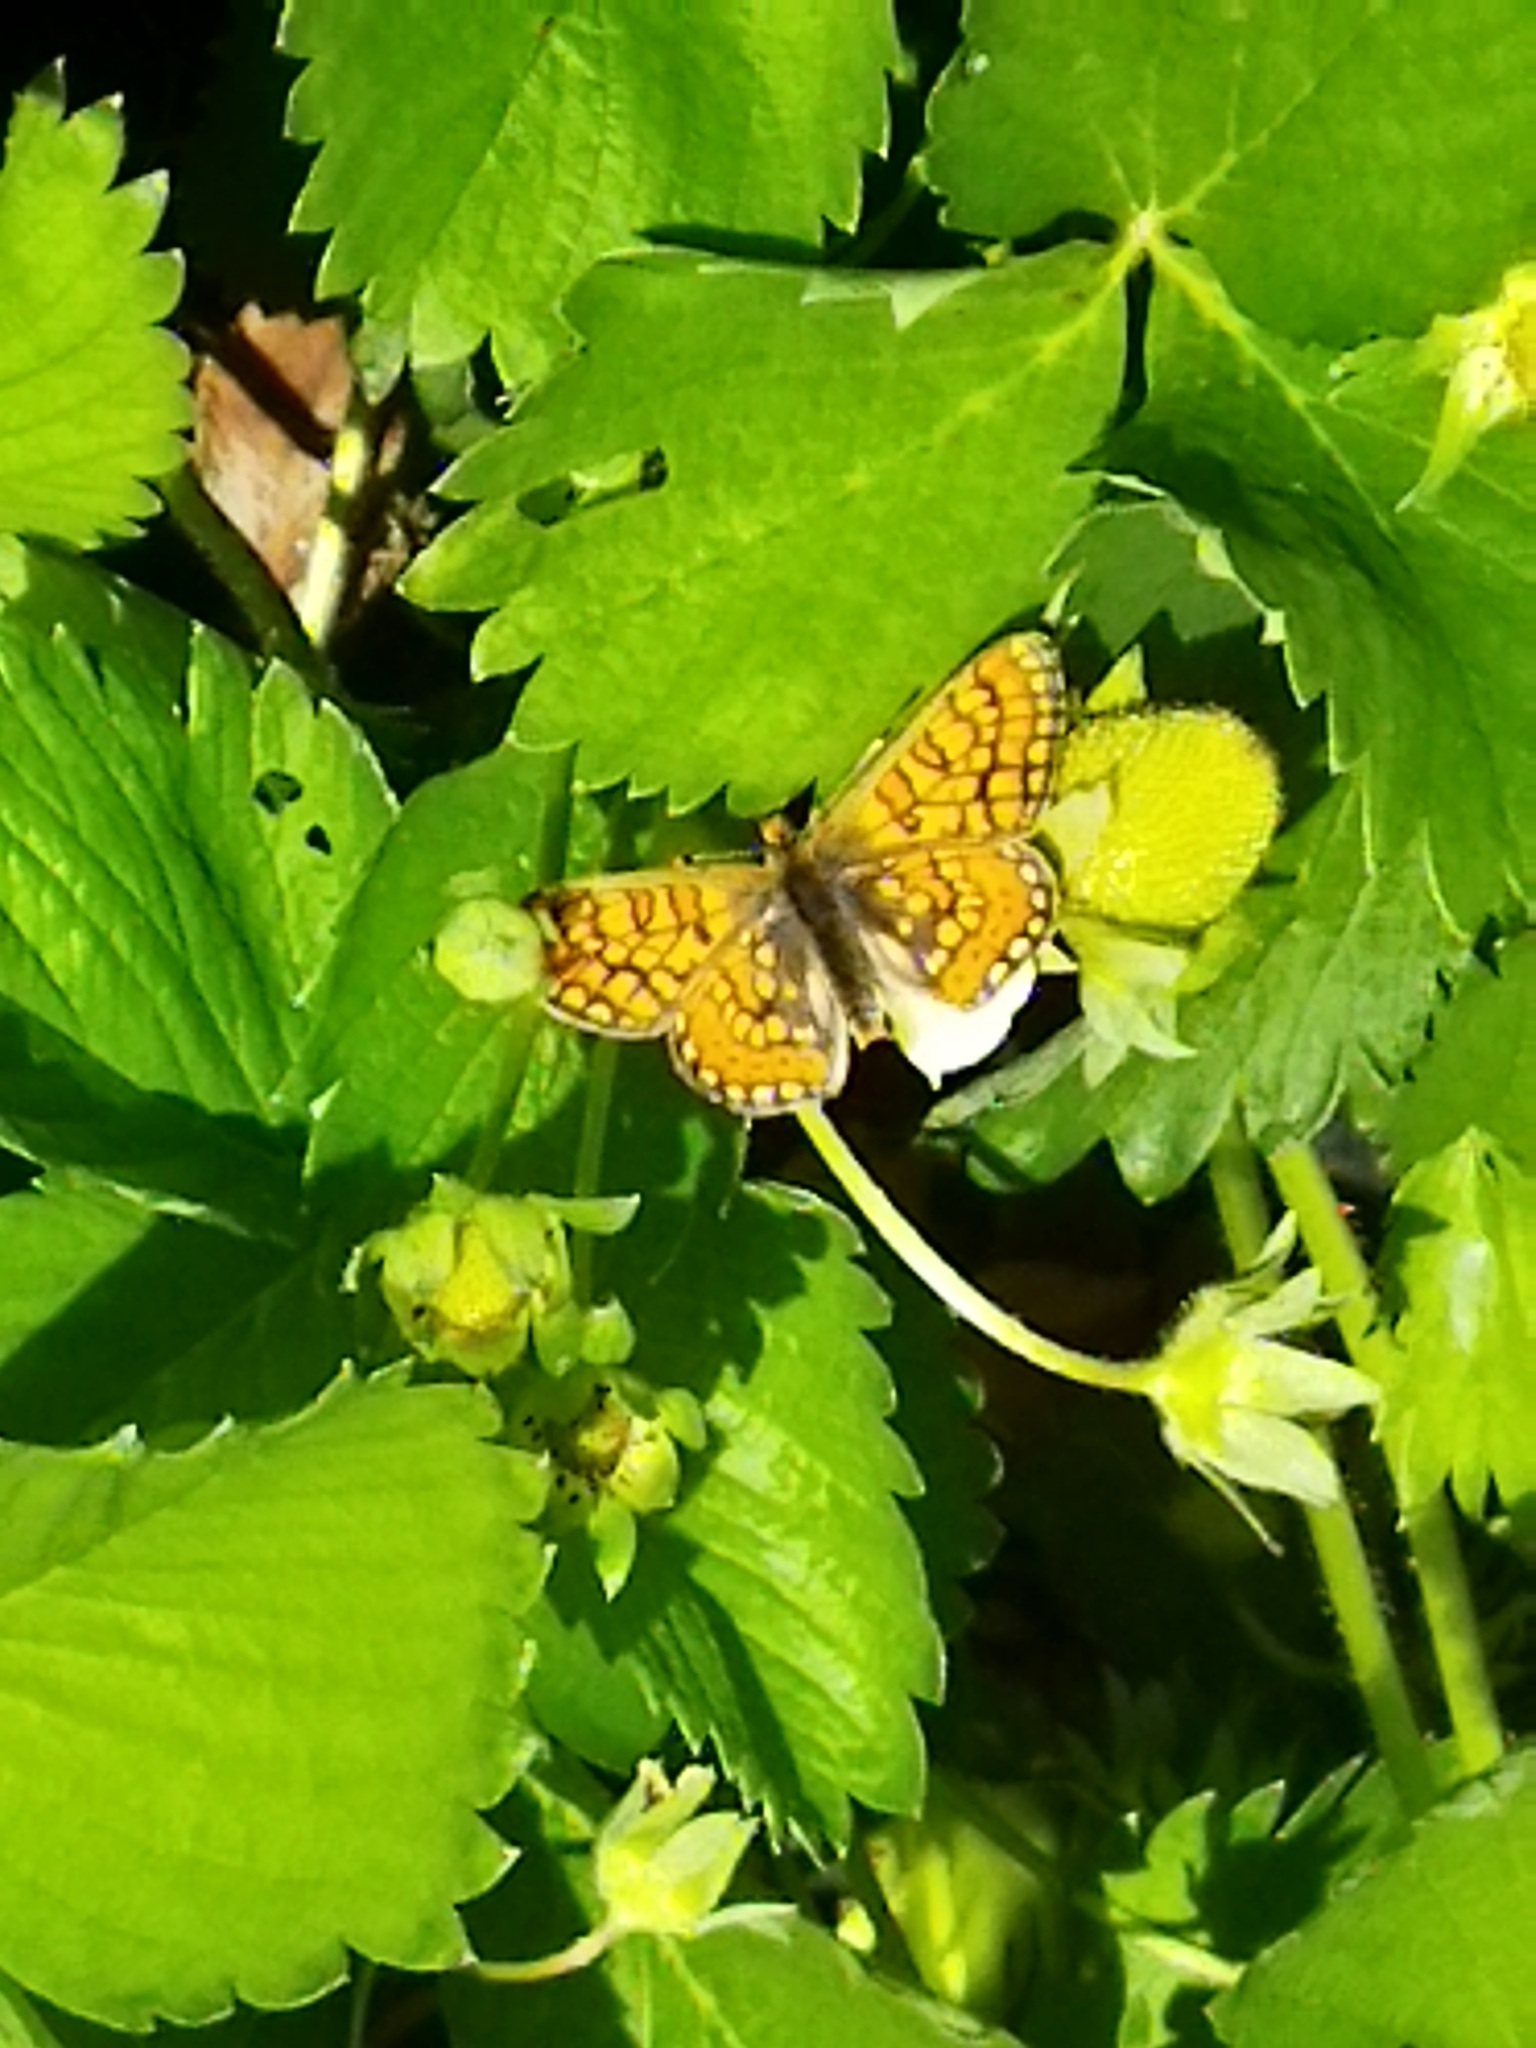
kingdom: Animalia
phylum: Arthropoda
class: Insecta
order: Lepidoptera
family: Nymphalidae
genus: Euphydryas
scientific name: Euphydryas aurinia
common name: Marsh fritillary
